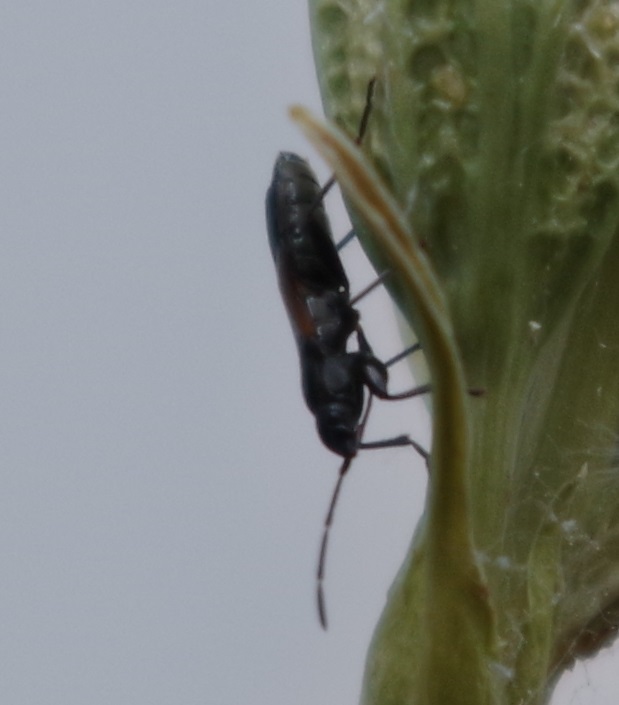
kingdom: Animalia
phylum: Arthropoda
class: Insecta
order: Hemiptera
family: Rhyparochromidae
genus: Pterotmetus
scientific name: Pterotmetus staphyliniformis
